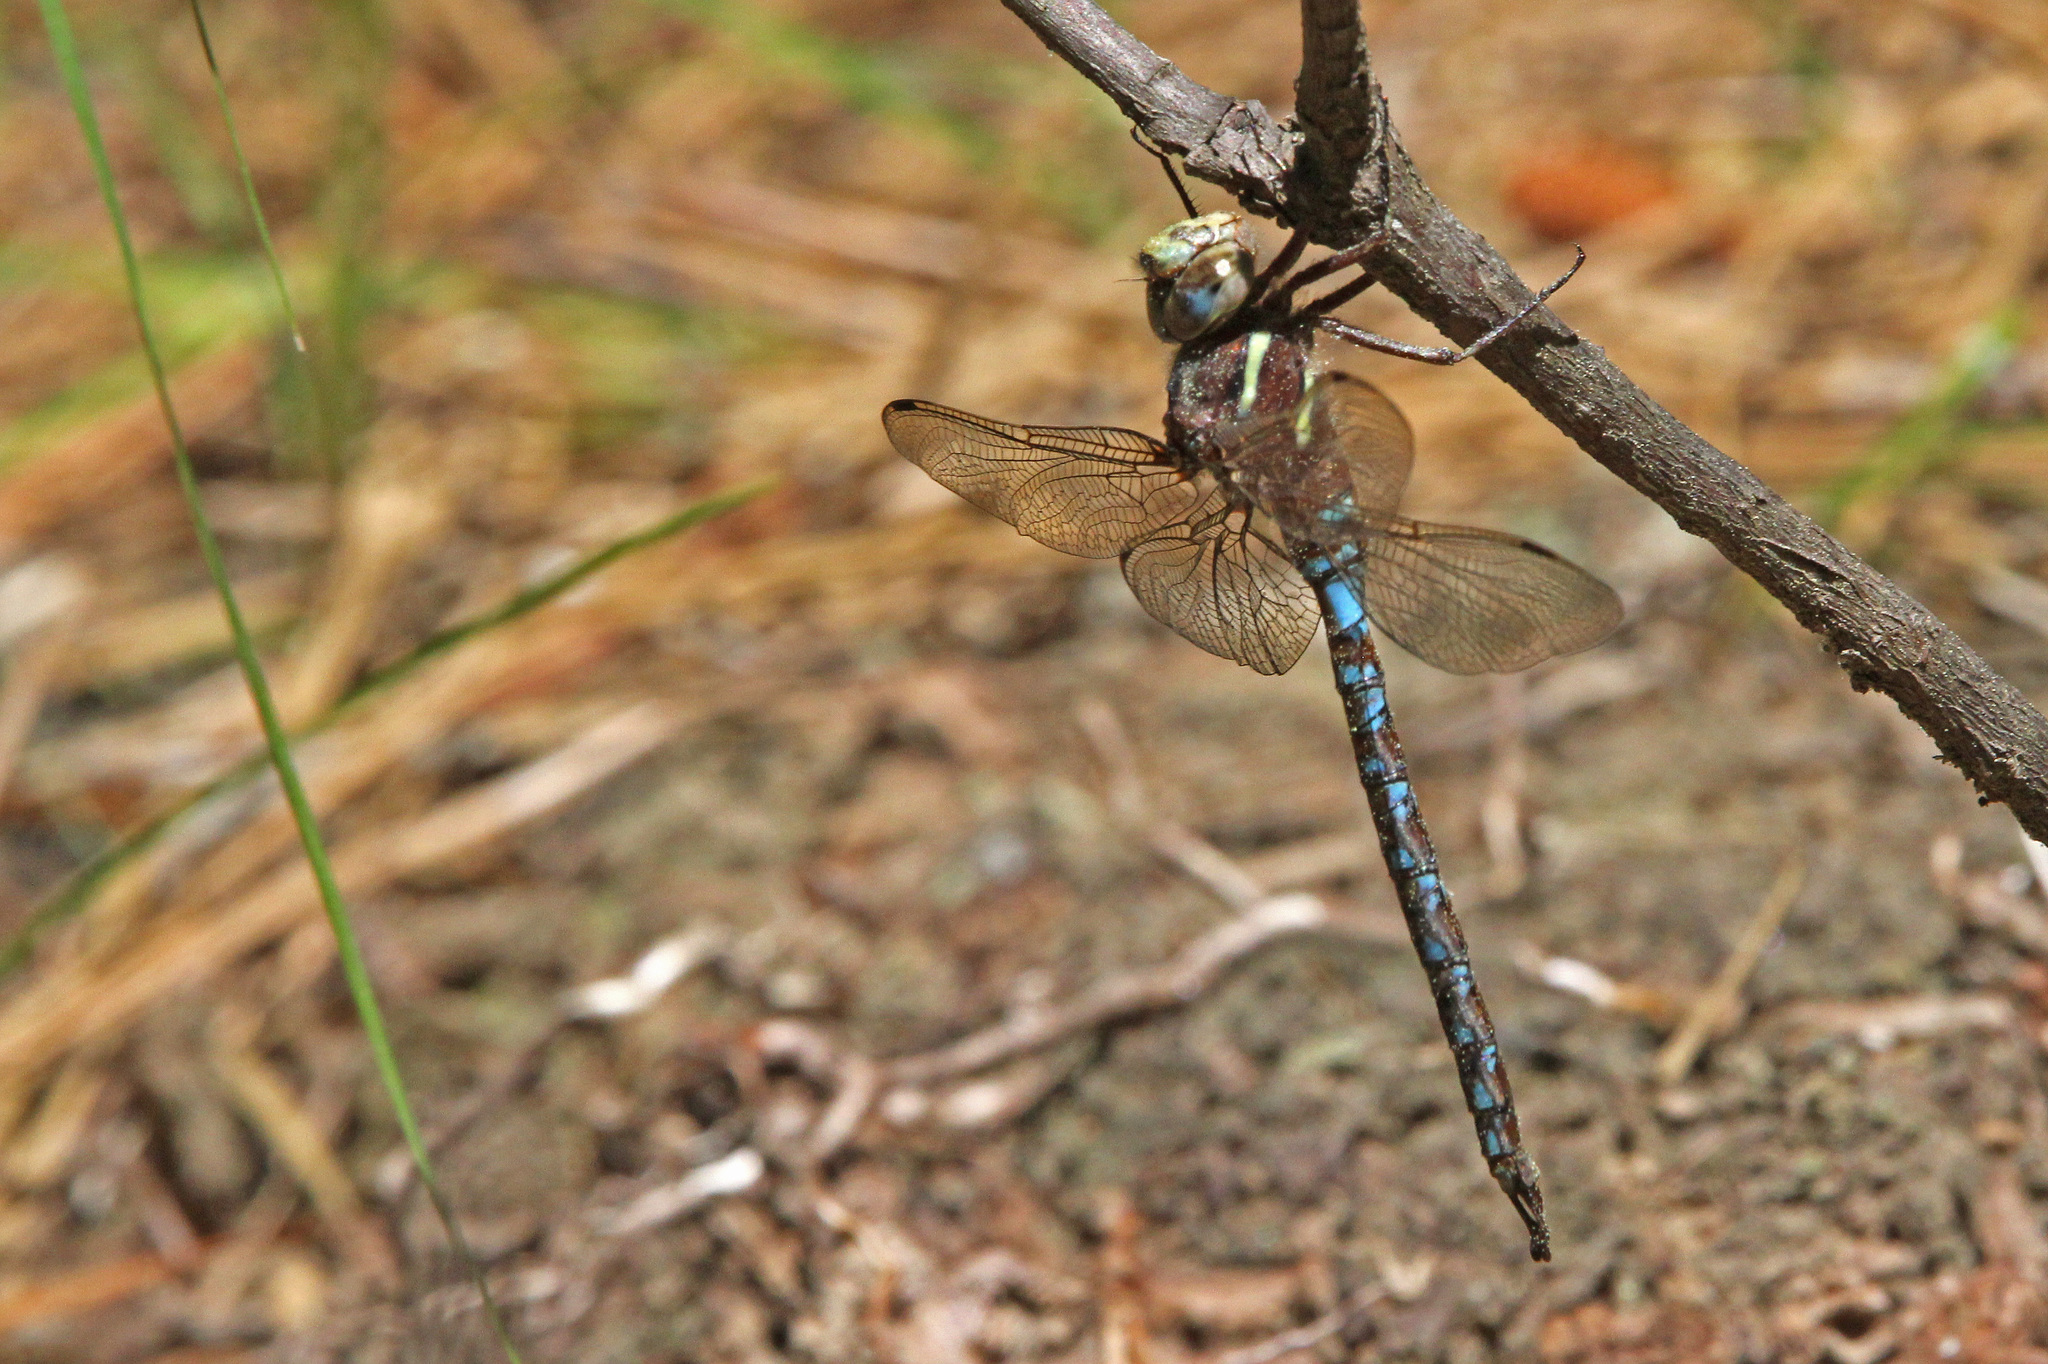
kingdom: Animalia
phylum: Arthropoda
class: Insecta
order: Odonata
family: Aeshnidae
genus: Basiaeschna
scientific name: Basiaeschna janata
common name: Springtime darner
